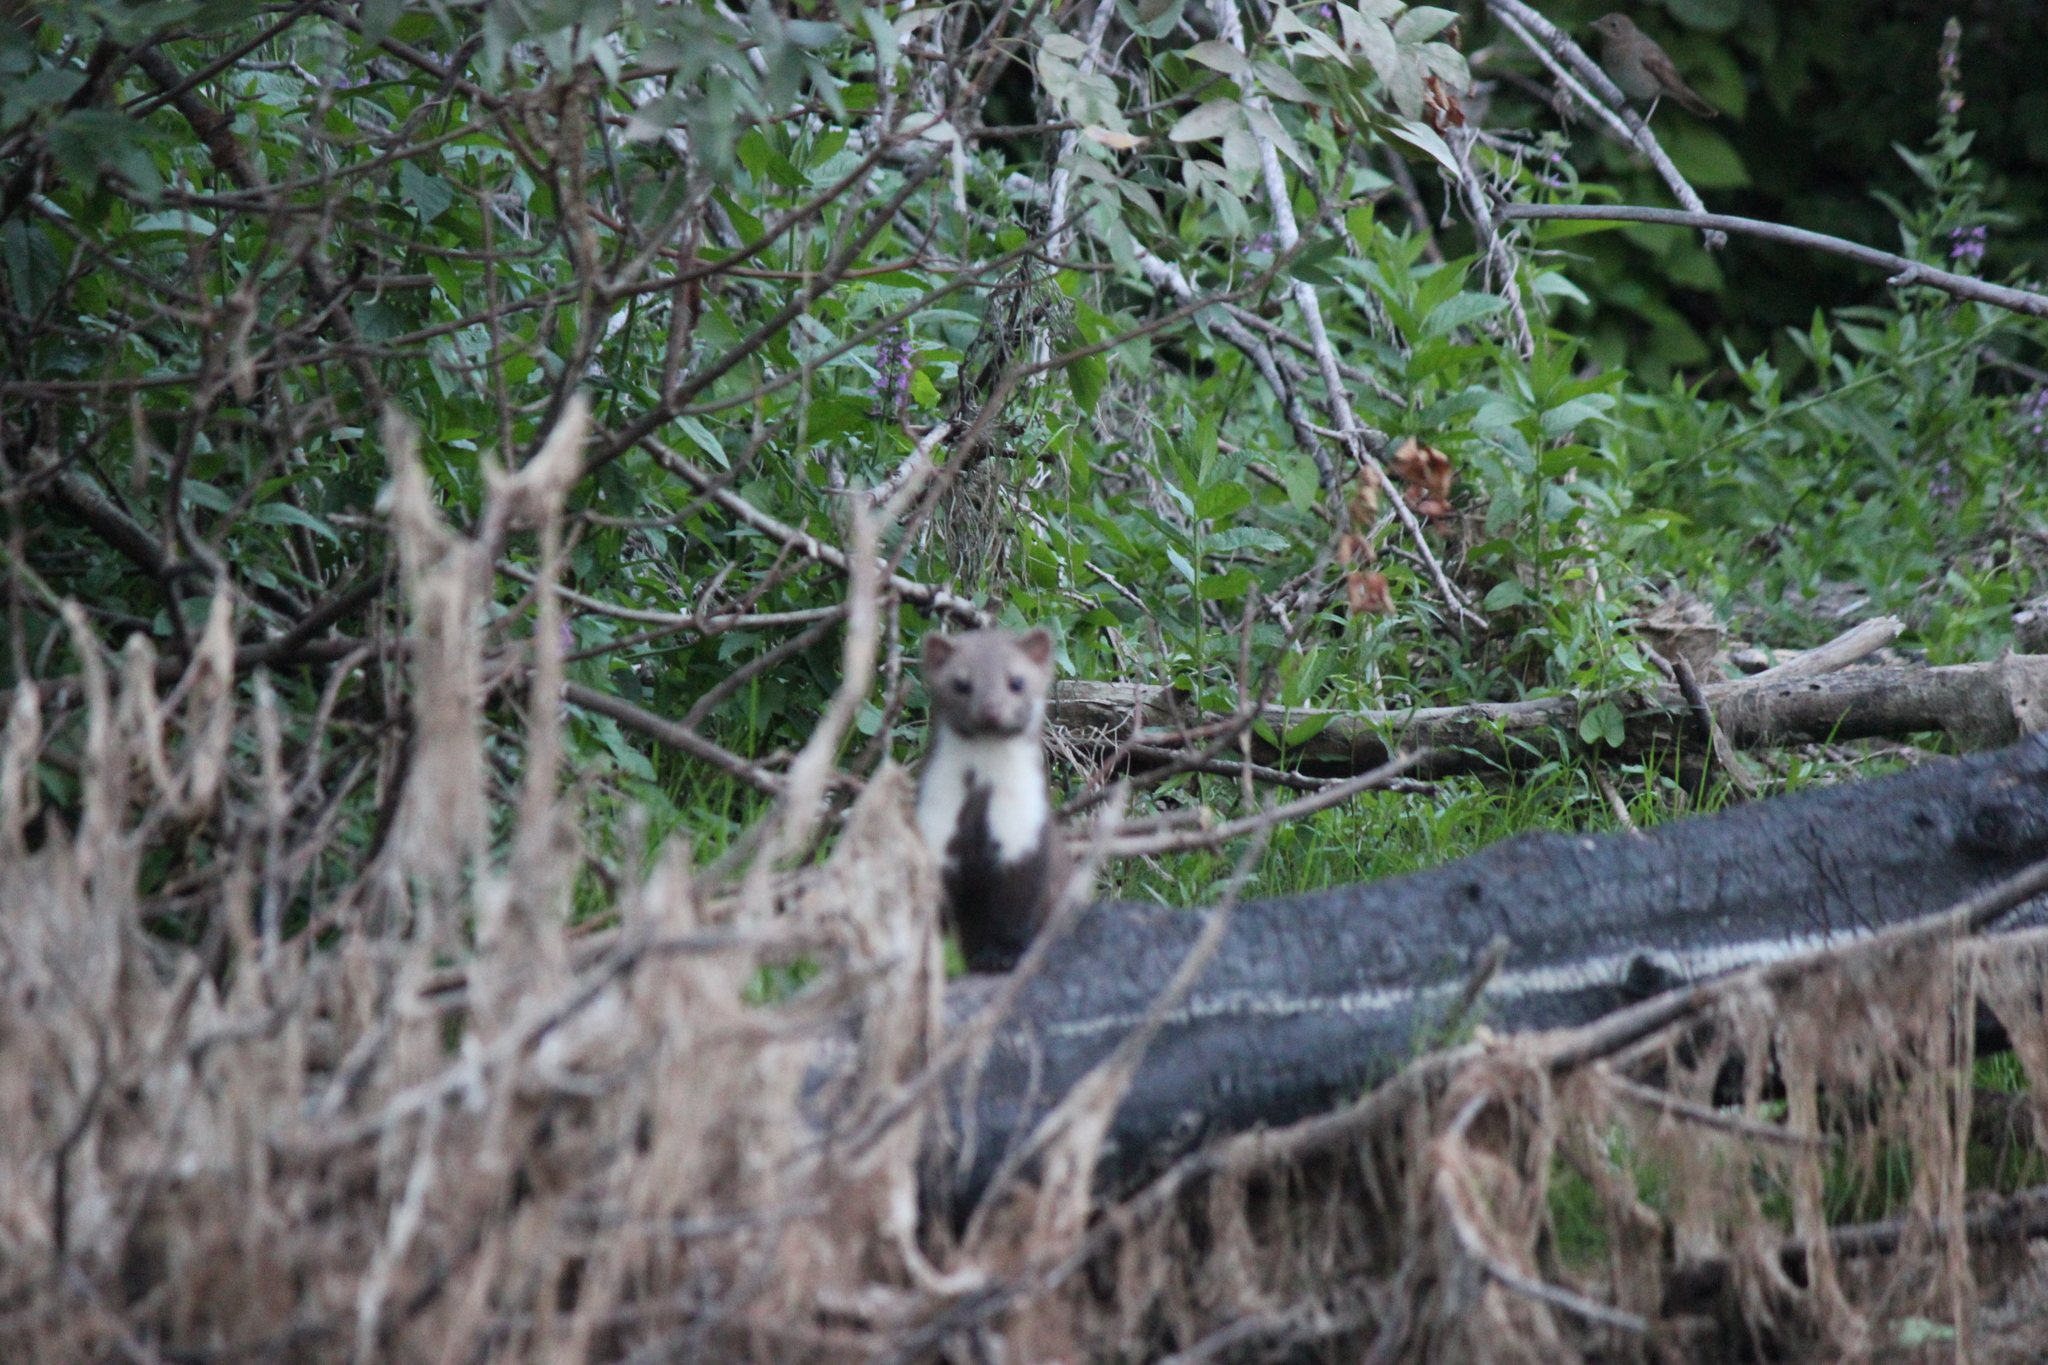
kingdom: Animalia
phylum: Chordata
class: Mammalia
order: Carnivora
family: Mustelidae
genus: Martes
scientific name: Martes foina
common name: Beech marten
